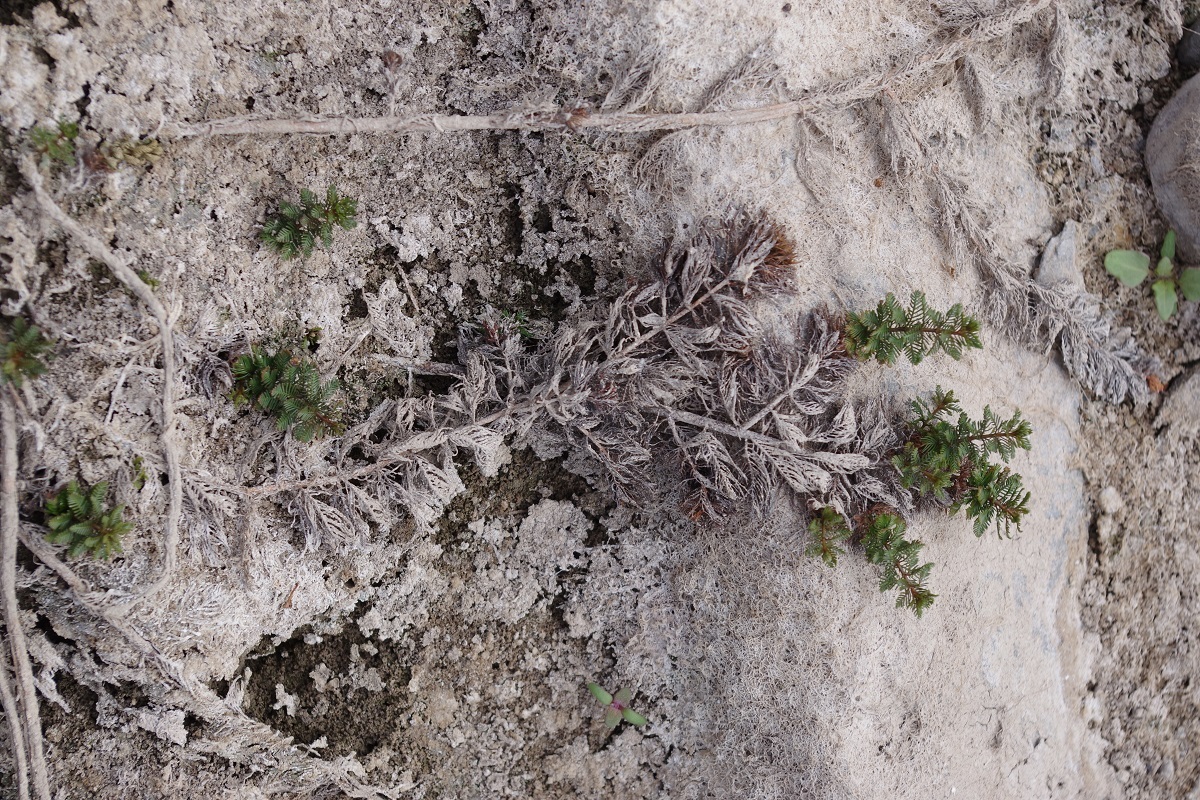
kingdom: Plantae
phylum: Tracheophyta
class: Magnoliopsida
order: Saxifragales
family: Haloragaceae
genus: Myriophyllum
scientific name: Myriophyllum verticillatum
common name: Whorled water-milfoil
